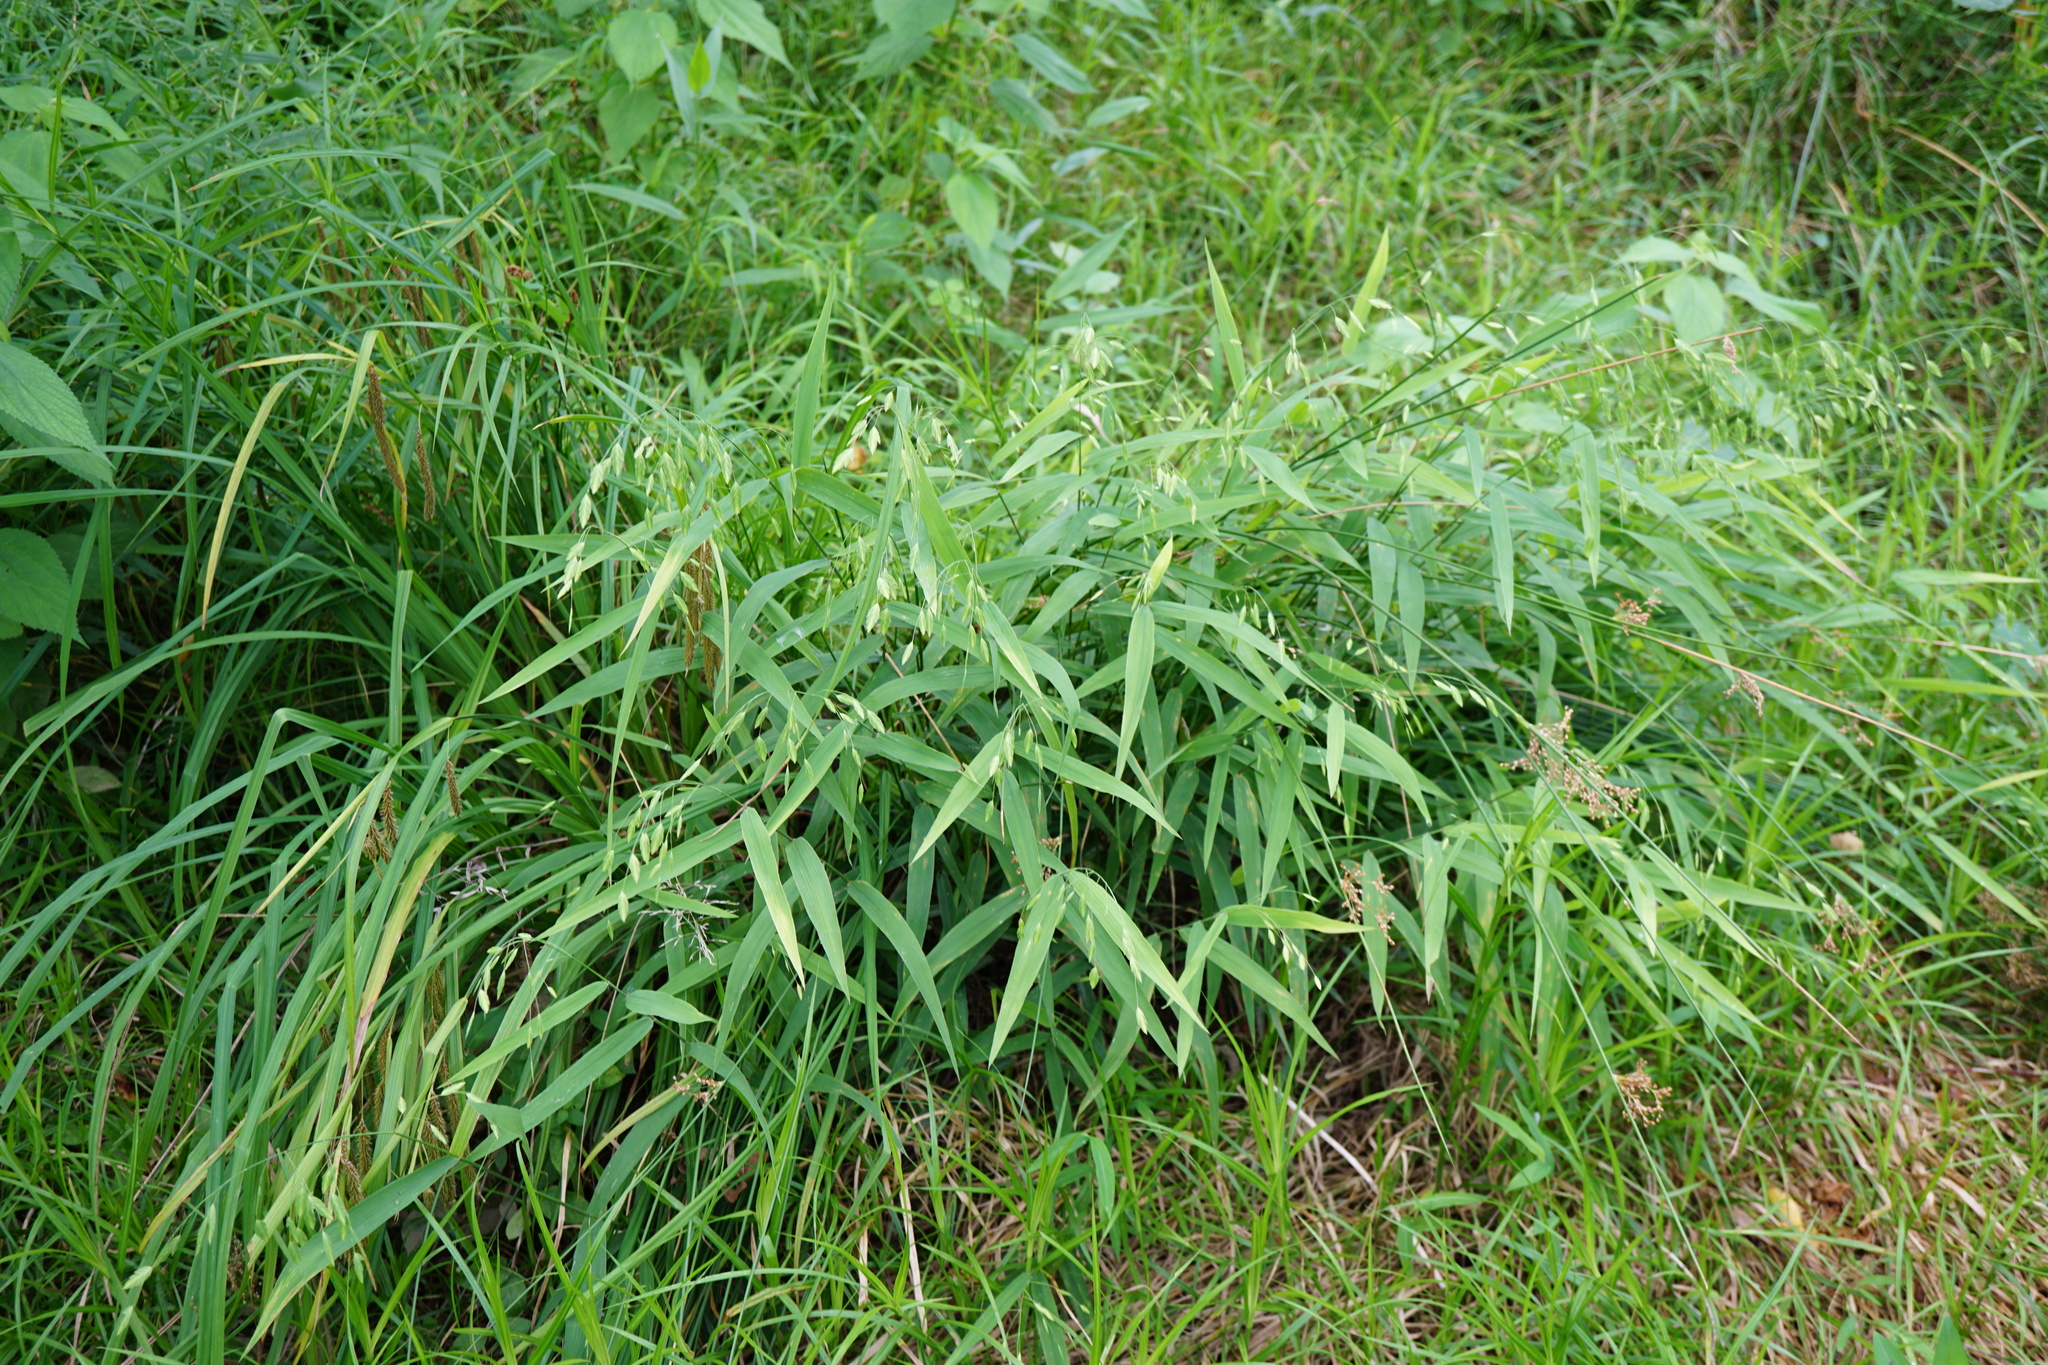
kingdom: Plantae
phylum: Tracheophyta
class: Liliopsida
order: Poales
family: Poaceae
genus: Chasmanthium
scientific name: Chasmanthium latifolium
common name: Broad-leaved chasmanthium
